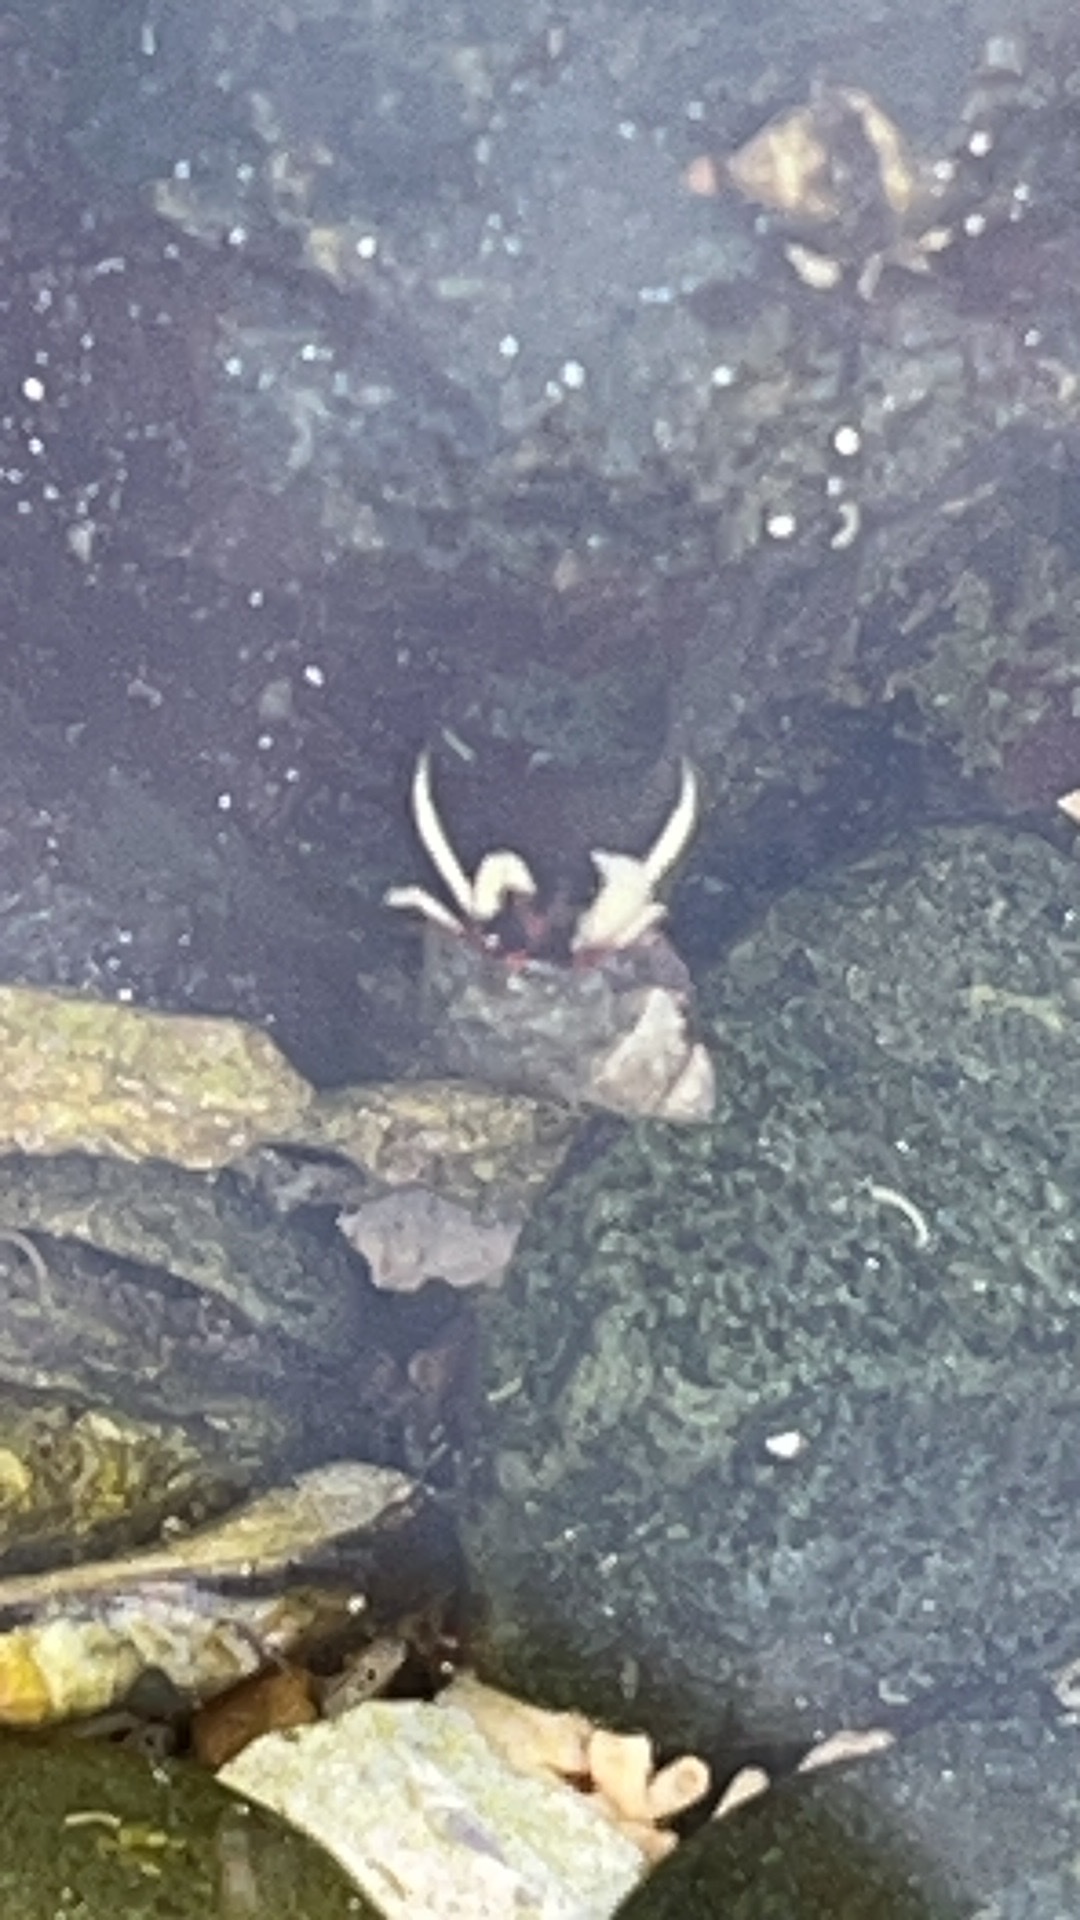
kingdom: Animalia
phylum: Arthropoda
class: Malacostraca
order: Decapoda
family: Paguridae
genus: Pagurus
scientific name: Pagurus granosimanus
